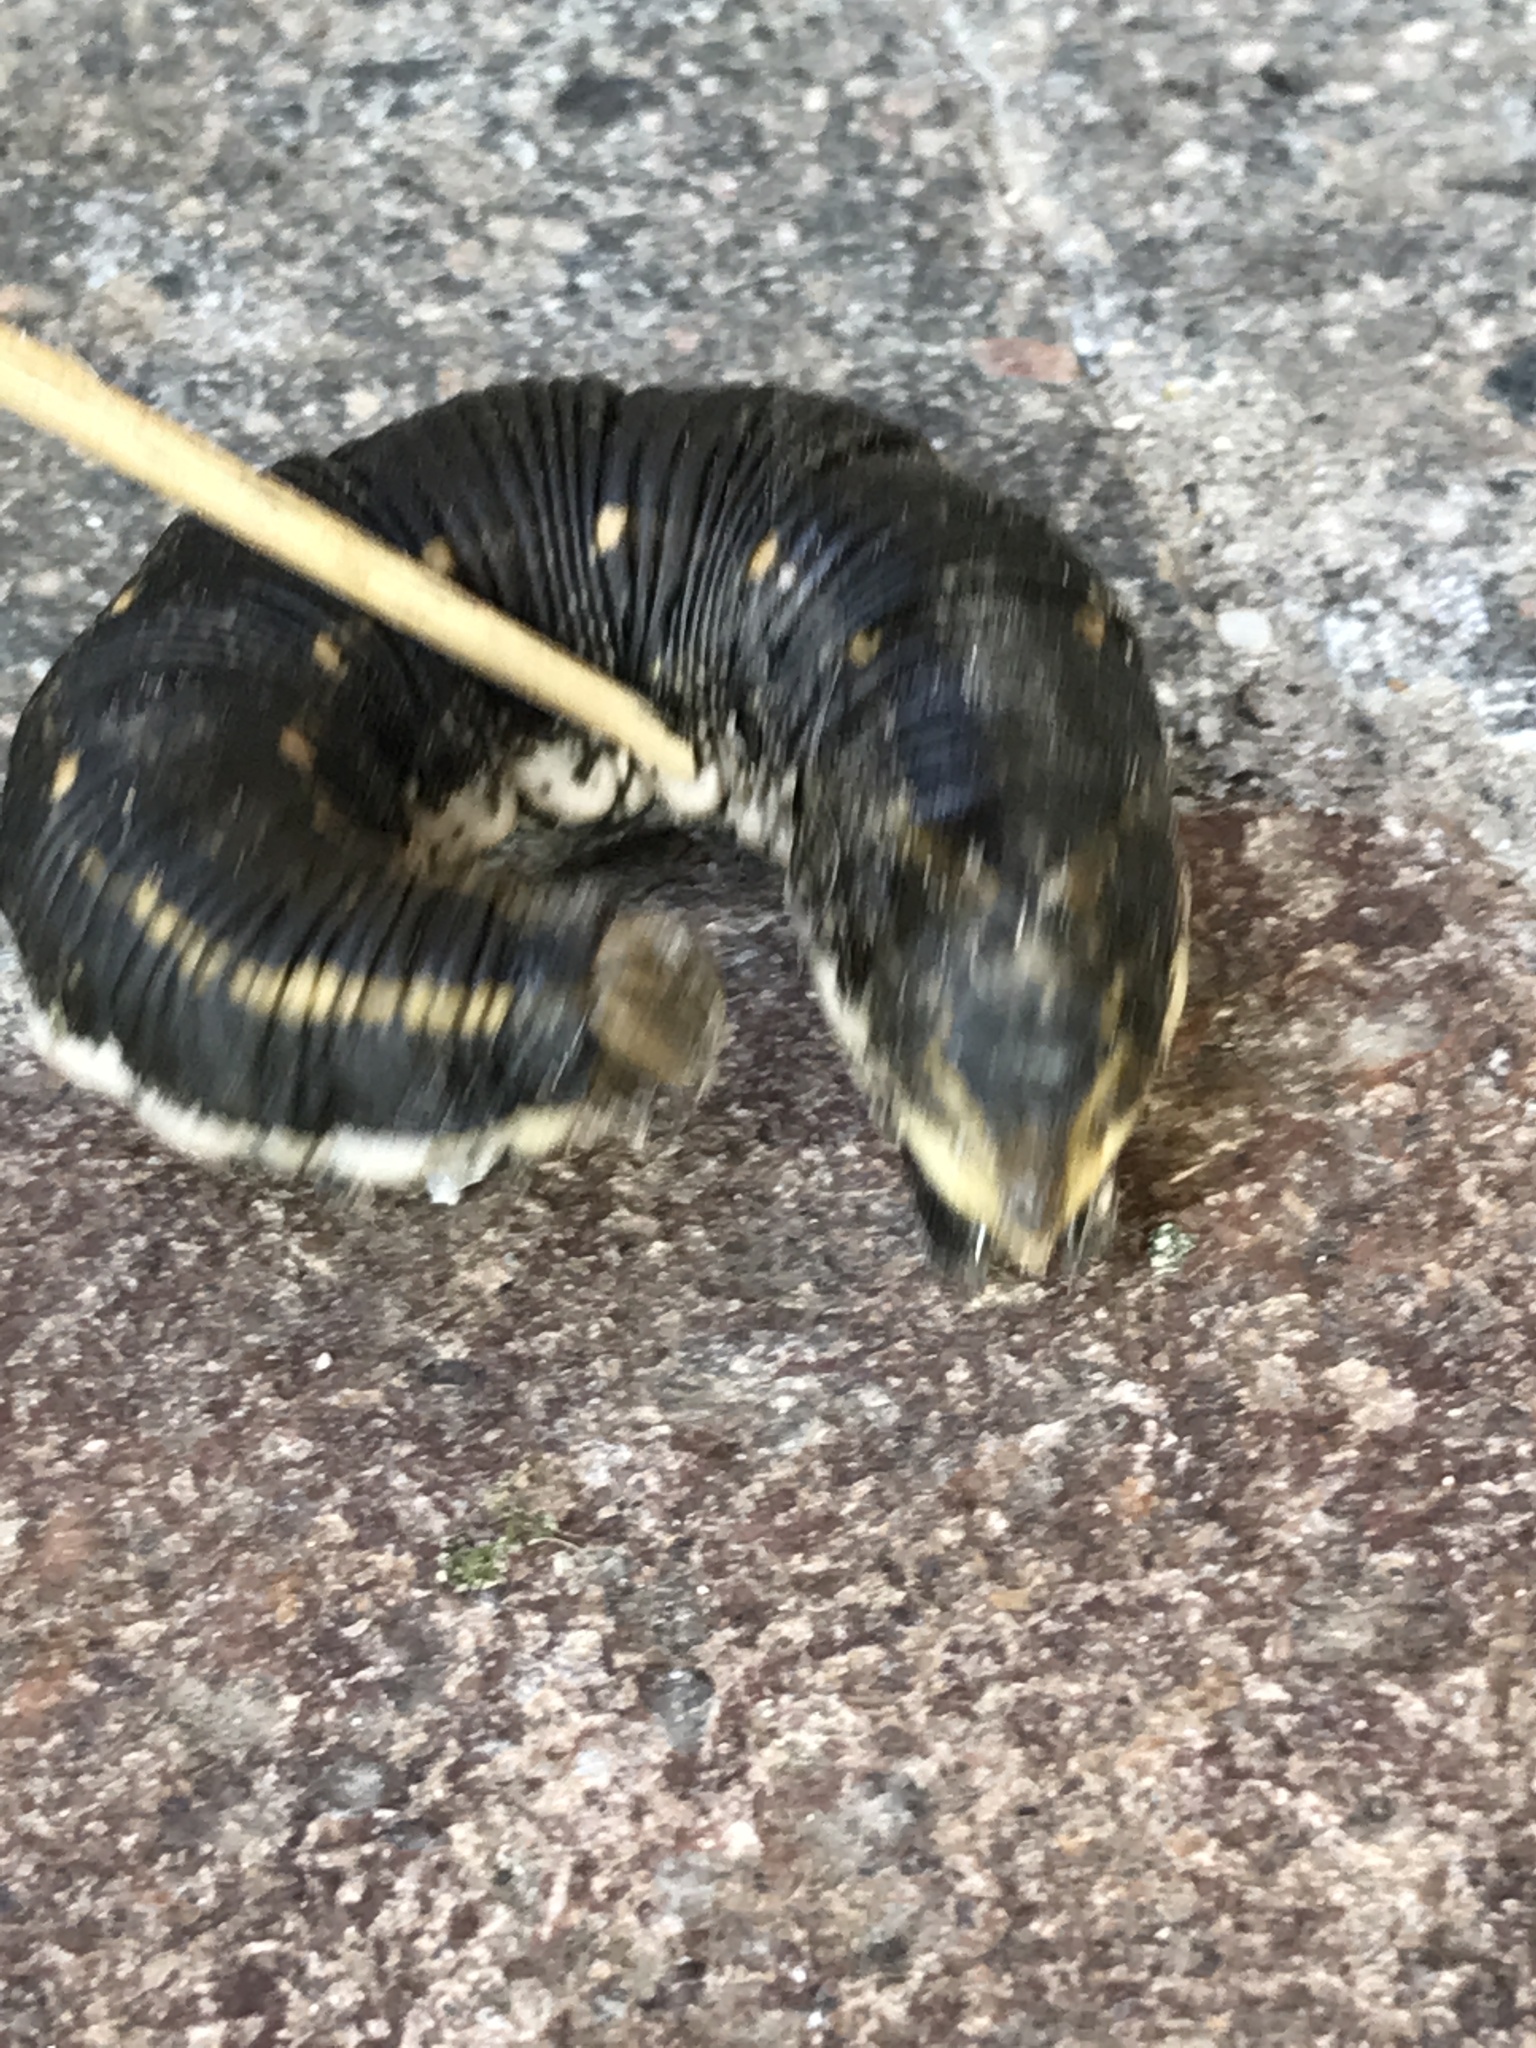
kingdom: Animalia
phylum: Arthropoda
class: Insecta
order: Lepidoptera
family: Sphingidae
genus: Agrius
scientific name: Agrius convolvuli
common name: Convolvulus hawkmoth
